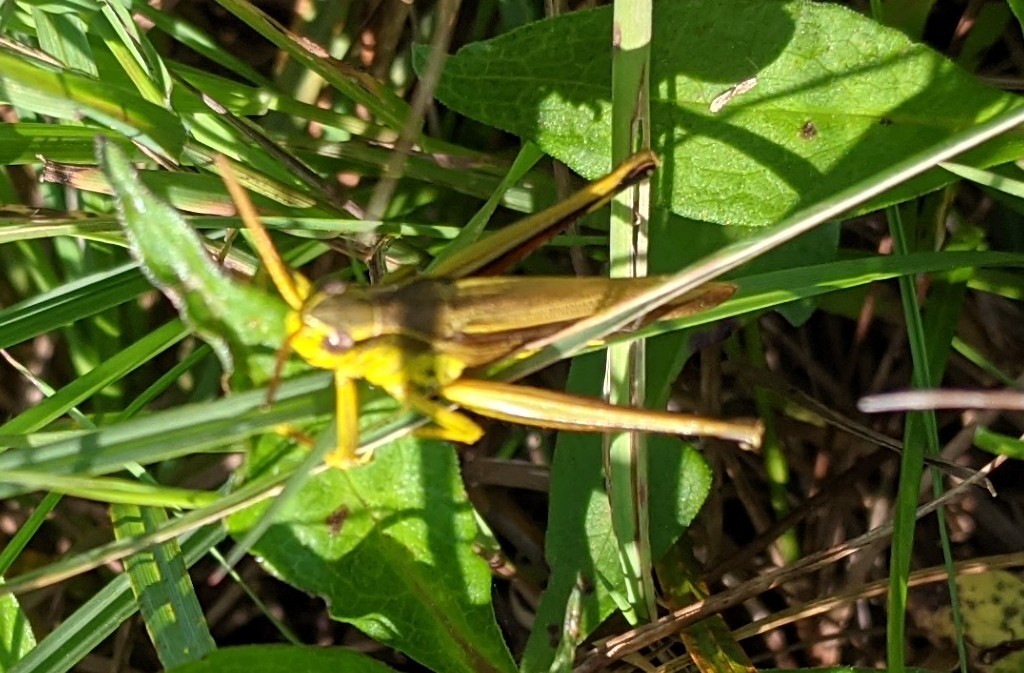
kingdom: Animalia
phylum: Arthropoda
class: Insecta
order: Orthoptera
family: Acrididae
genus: Stethophyma
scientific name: Stethophyma gracile
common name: Graceful sedge grasshopper
